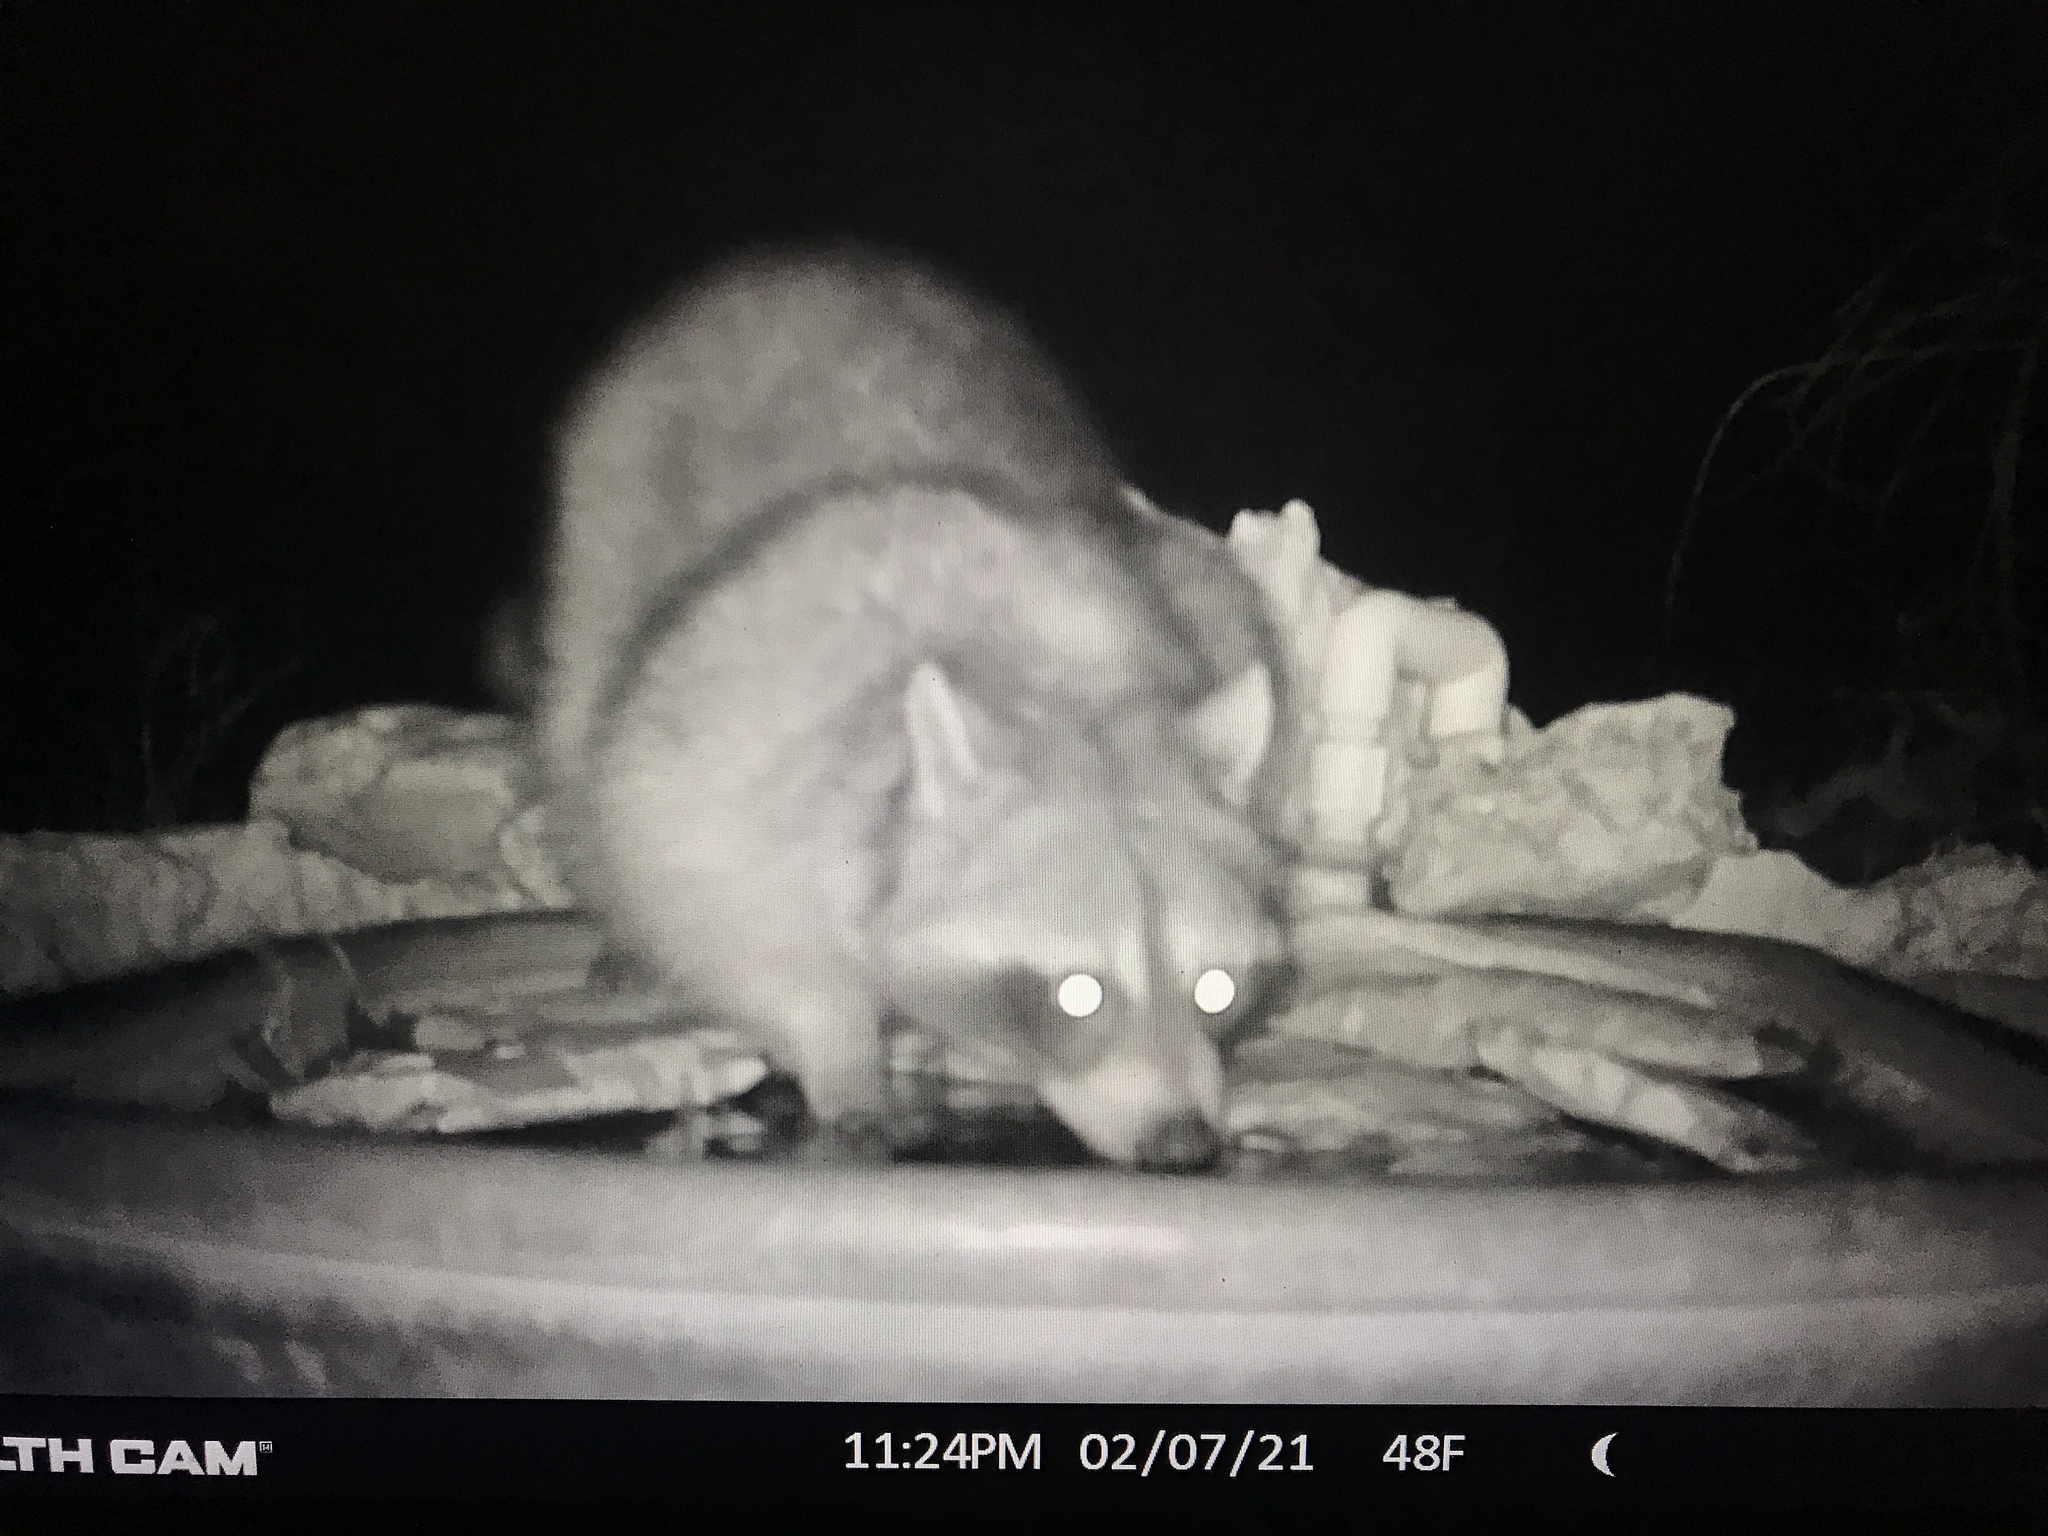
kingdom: Animalia
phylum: Chordata
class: Mammalia
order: Carnivora
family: Procyonidae
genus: Procyon
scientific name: Procyon lotor
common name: Raccoon
